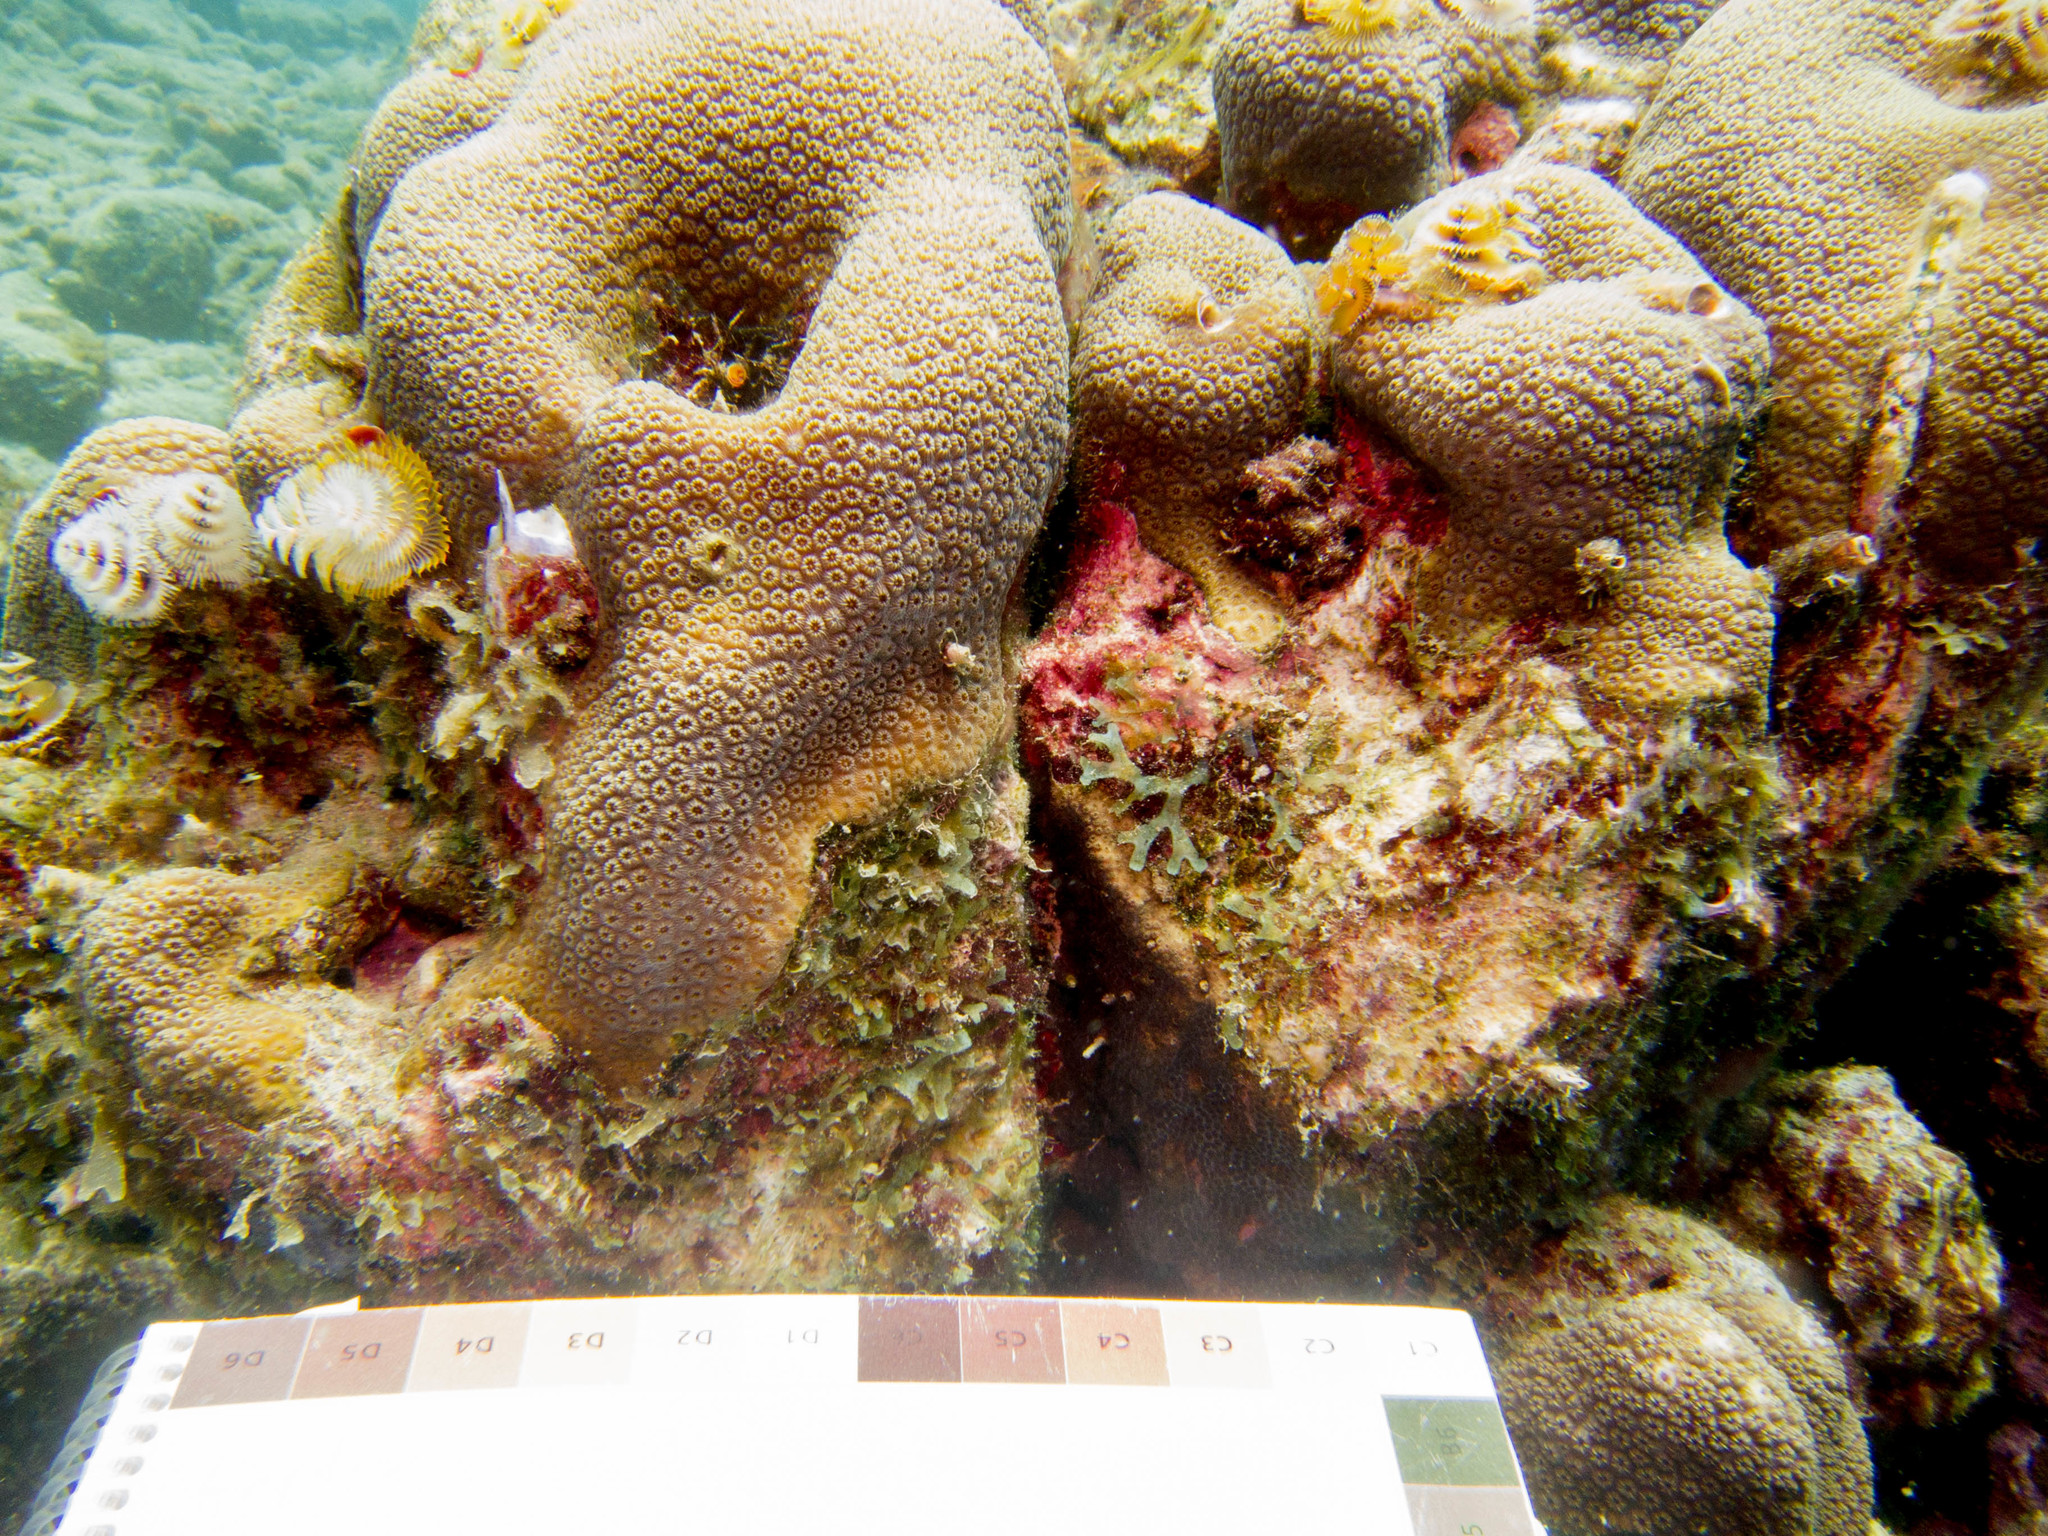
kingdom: Animalia
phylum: Annelida
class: Polychaeta
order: Sabellida
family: Serpulidae
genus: Spirobranchus
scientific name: Spirobranchus giganteus
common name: Christmas tree worm
